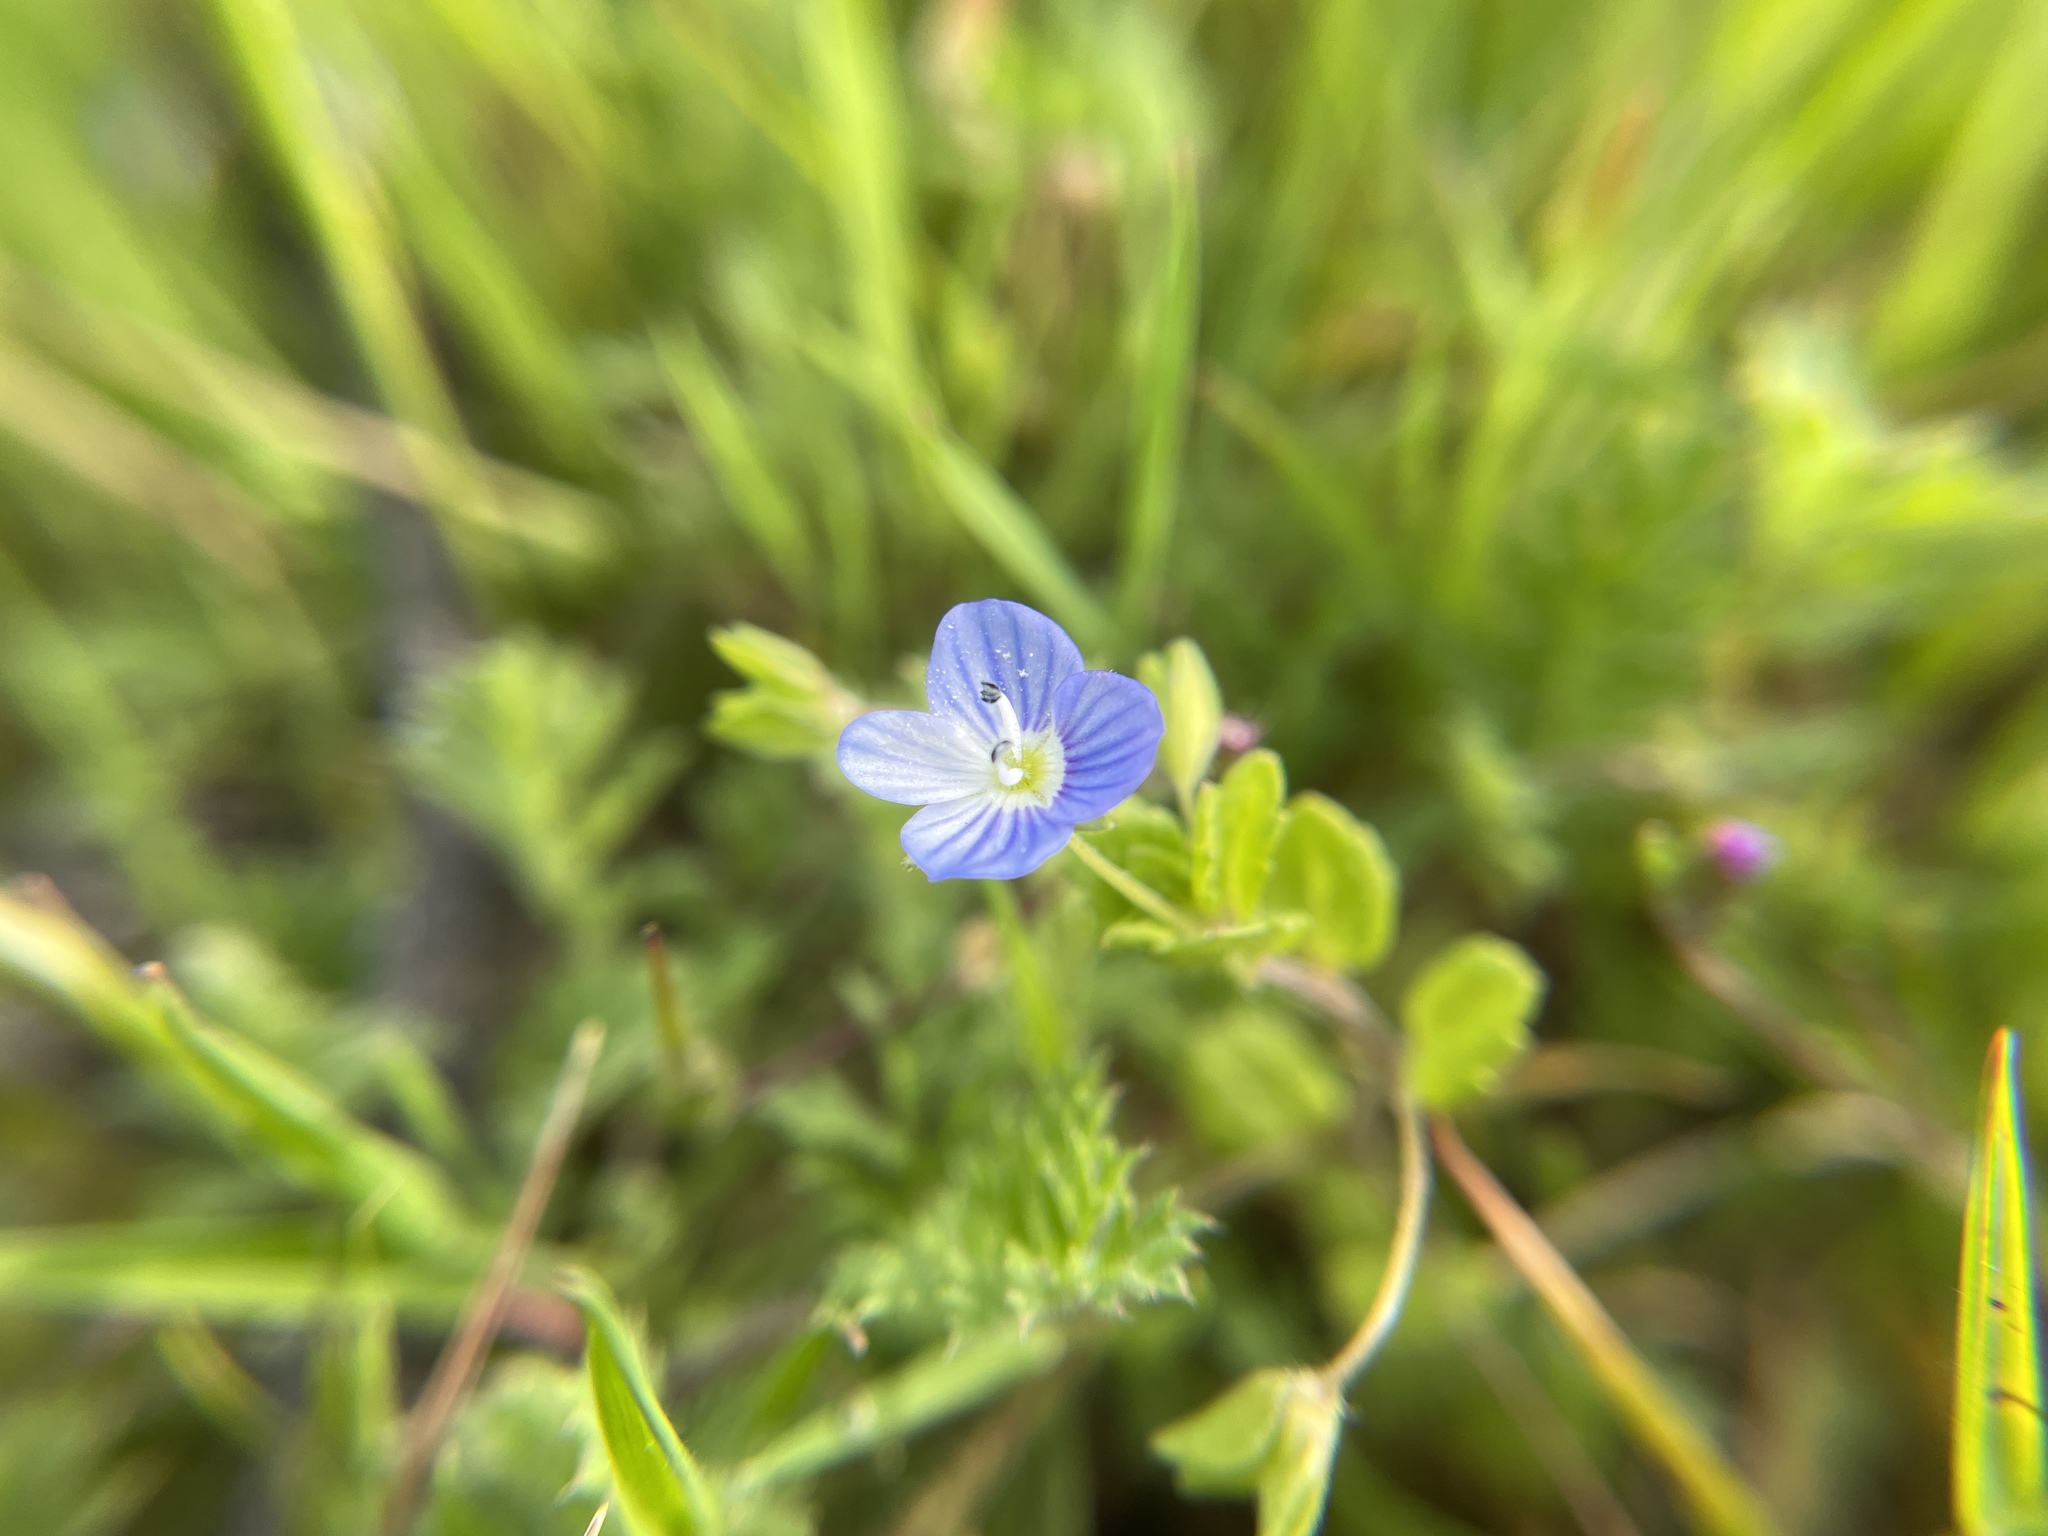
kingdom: Plantae
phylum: Tracheophyta
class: Magnoliopsida
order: Lamiales
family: Plantaginaceae
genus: Veronica
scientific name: Veronica persica
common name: Common field-speedwell
